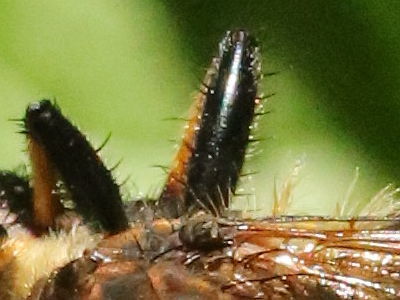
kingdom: Animalia
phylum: Arthropoda
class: Insecta
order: Diptera
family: Asilidae
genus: Promachus
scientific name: Promachus rufipes
